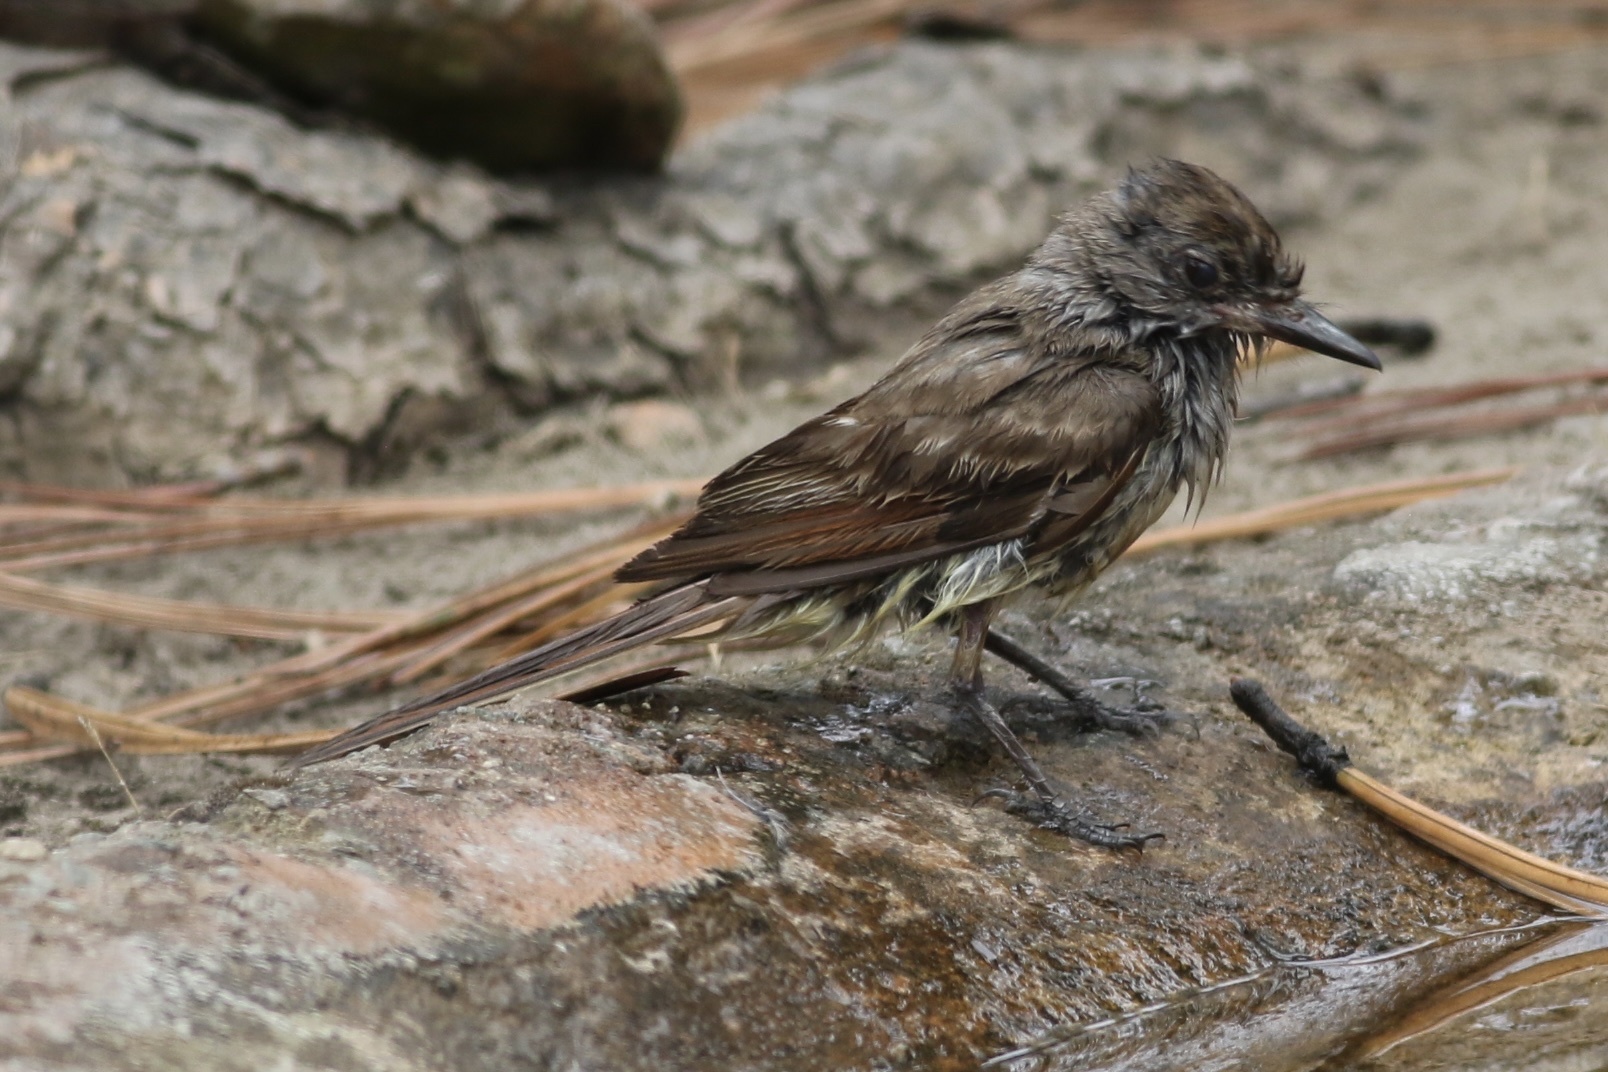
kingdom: Animalia
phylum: Chordata
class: Aves
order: Passeriformes
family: Tyrannidae
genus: Myiarchus
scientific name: Myiarchus cinerascens
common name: Ash-throated flycatcher
